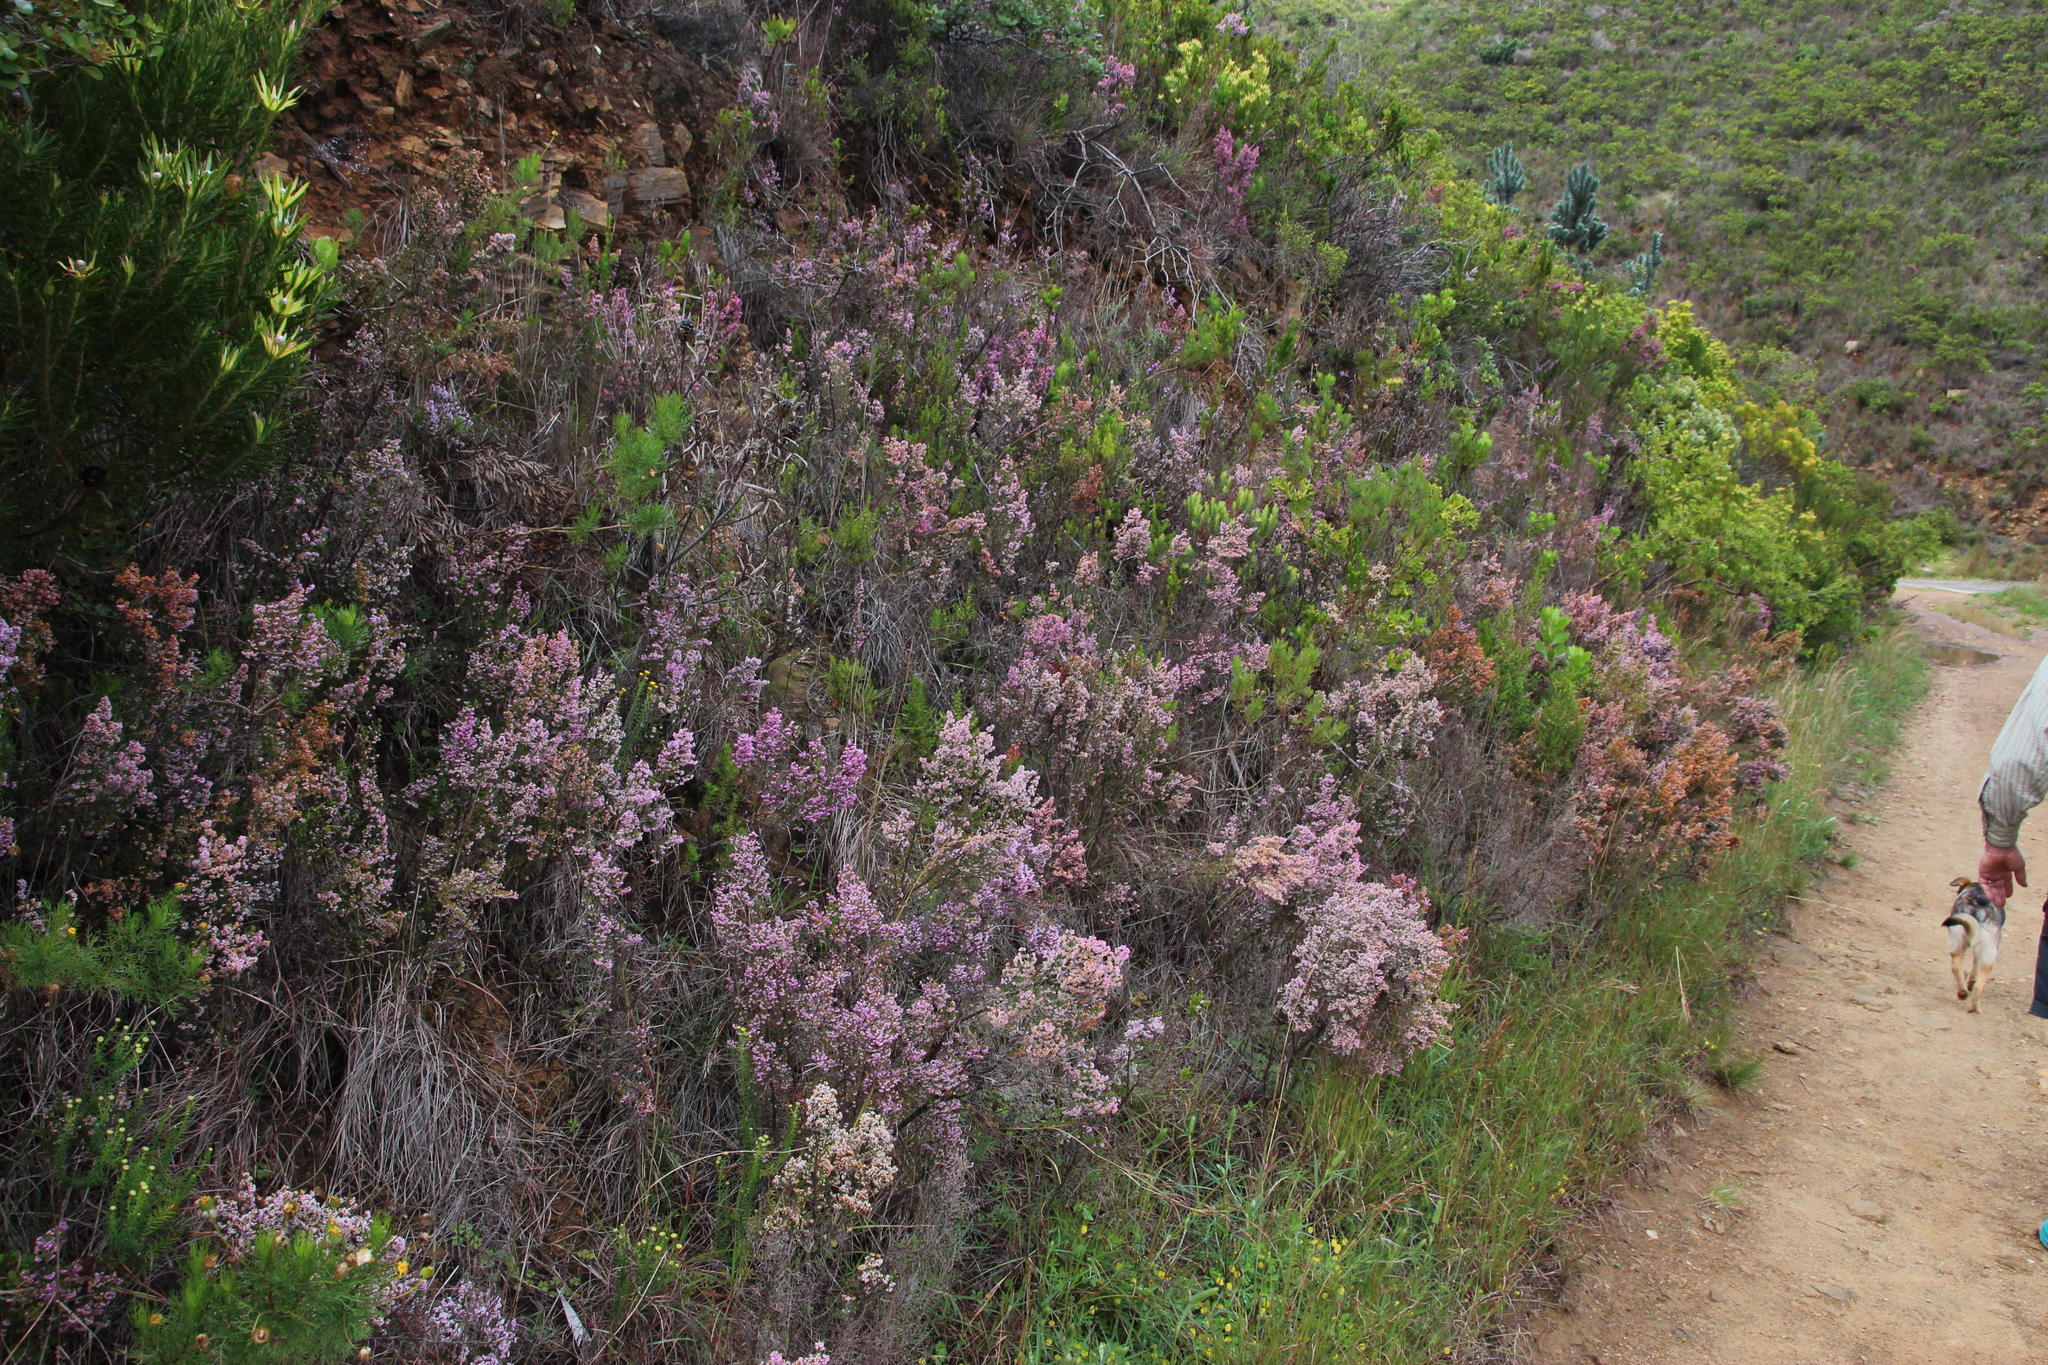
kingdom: Plantae
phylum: Tracheophyta
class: Magnoliopsida
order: Ericales
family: Ericaceae
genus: Erica
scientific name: Erica mauritanica
